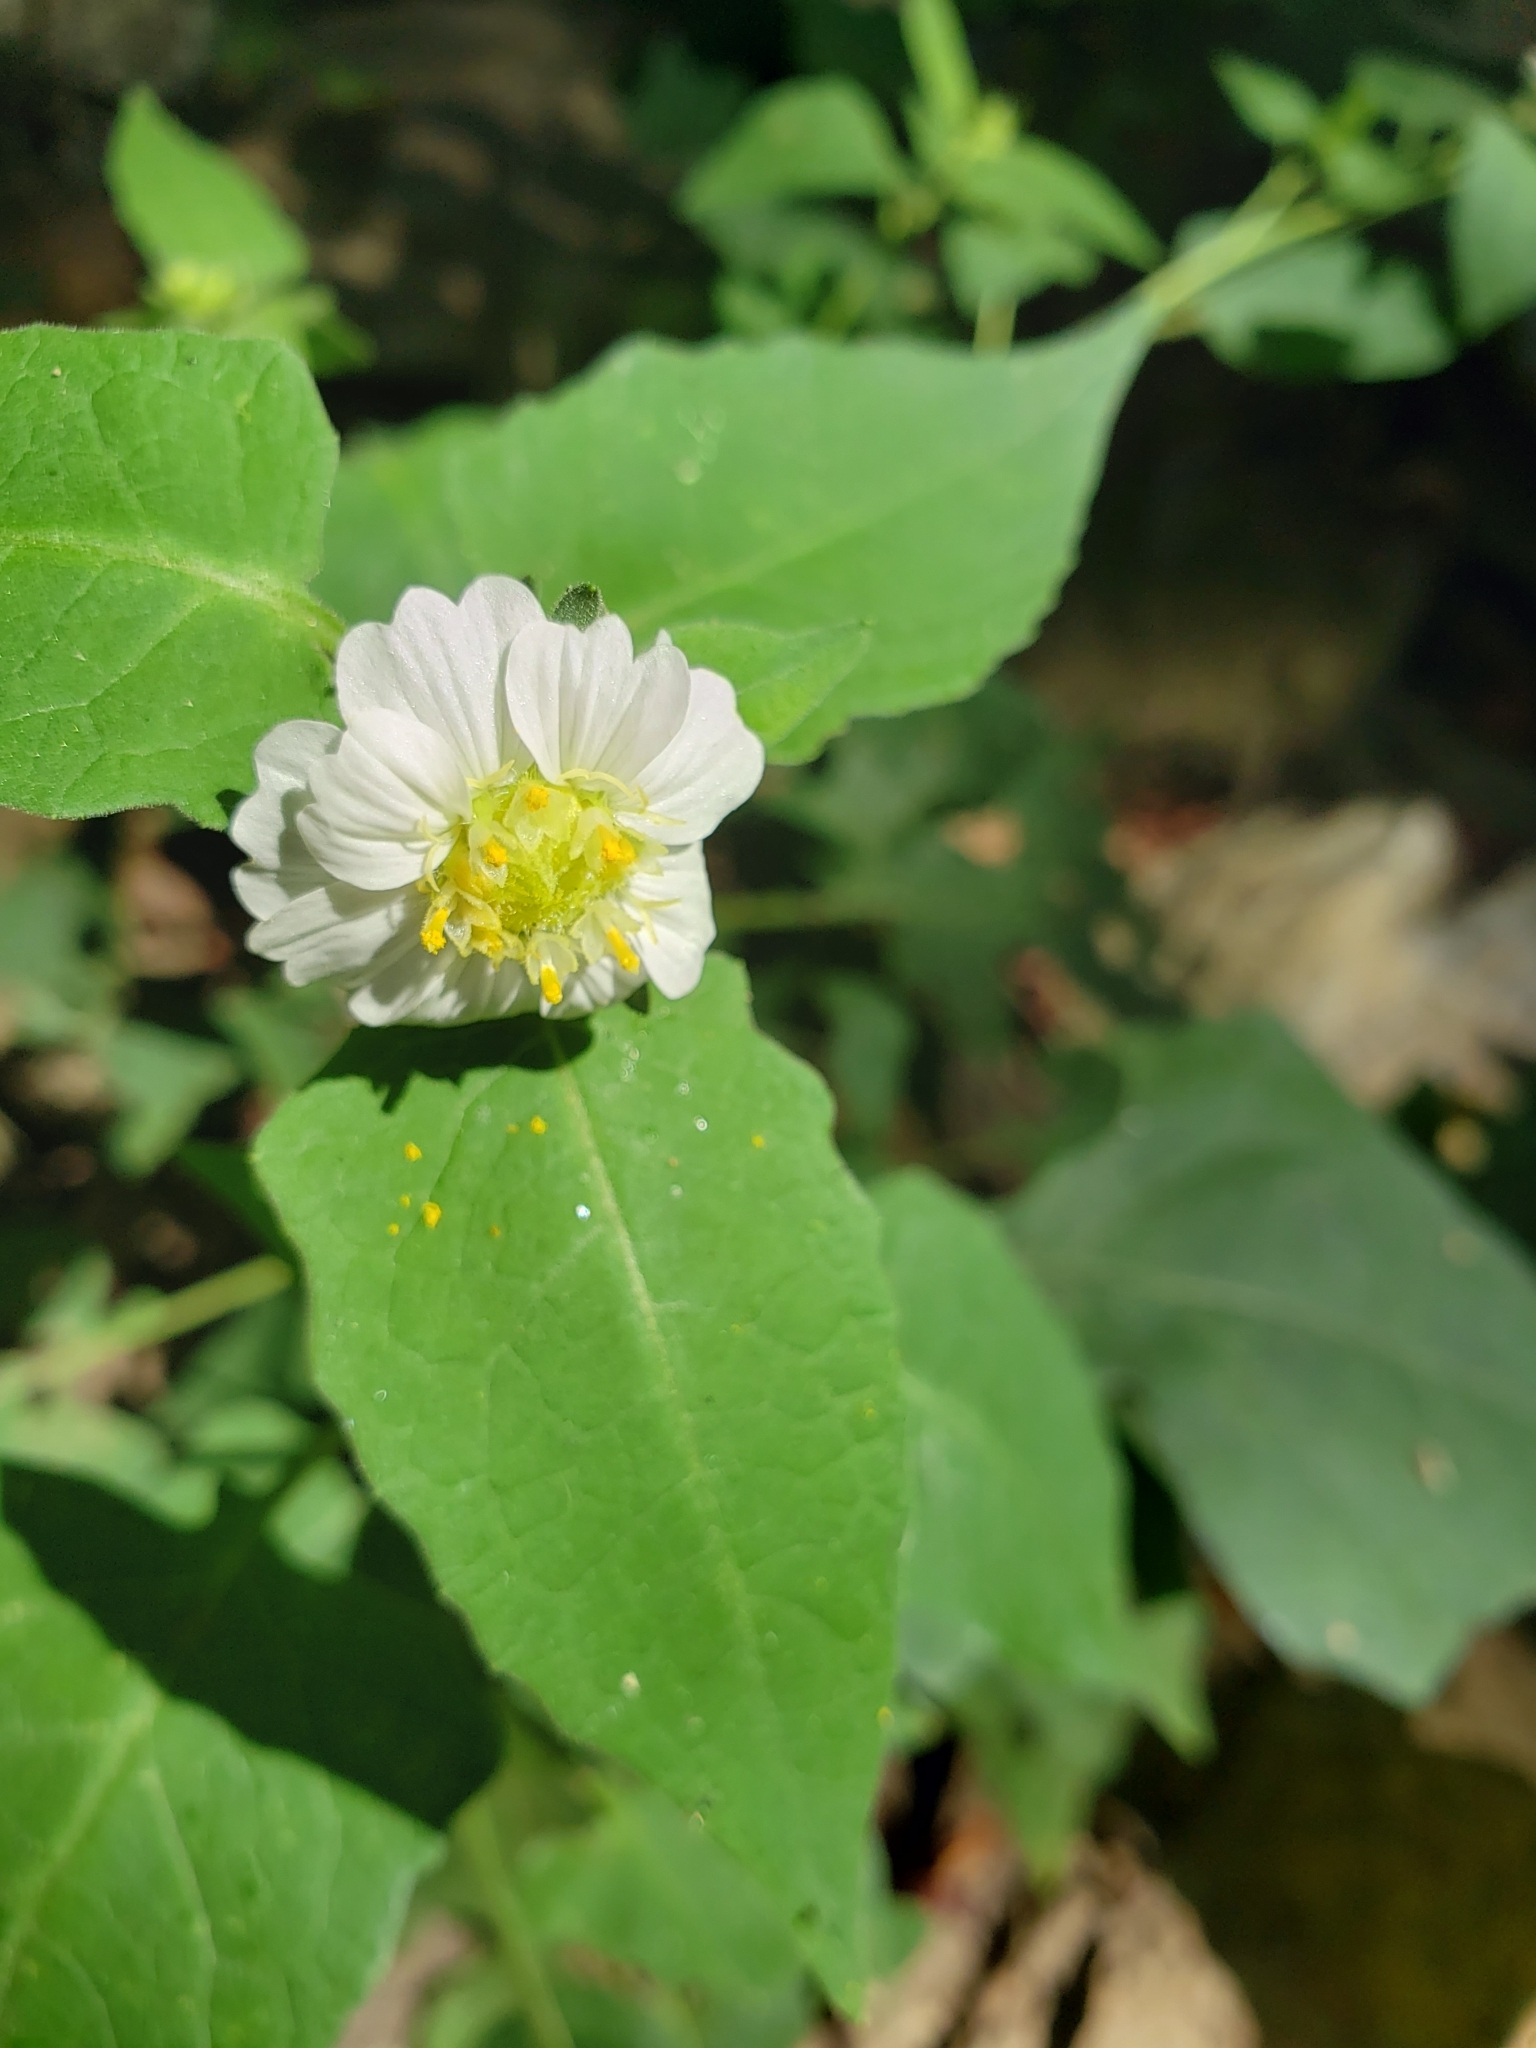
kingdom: Plantae
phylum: Tracheophyta
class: Magnoliopsida
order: Asterales
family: Asteraceae
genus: Polymnia
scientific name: Polymnia canadensis
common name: Pale-flowered leafcup
